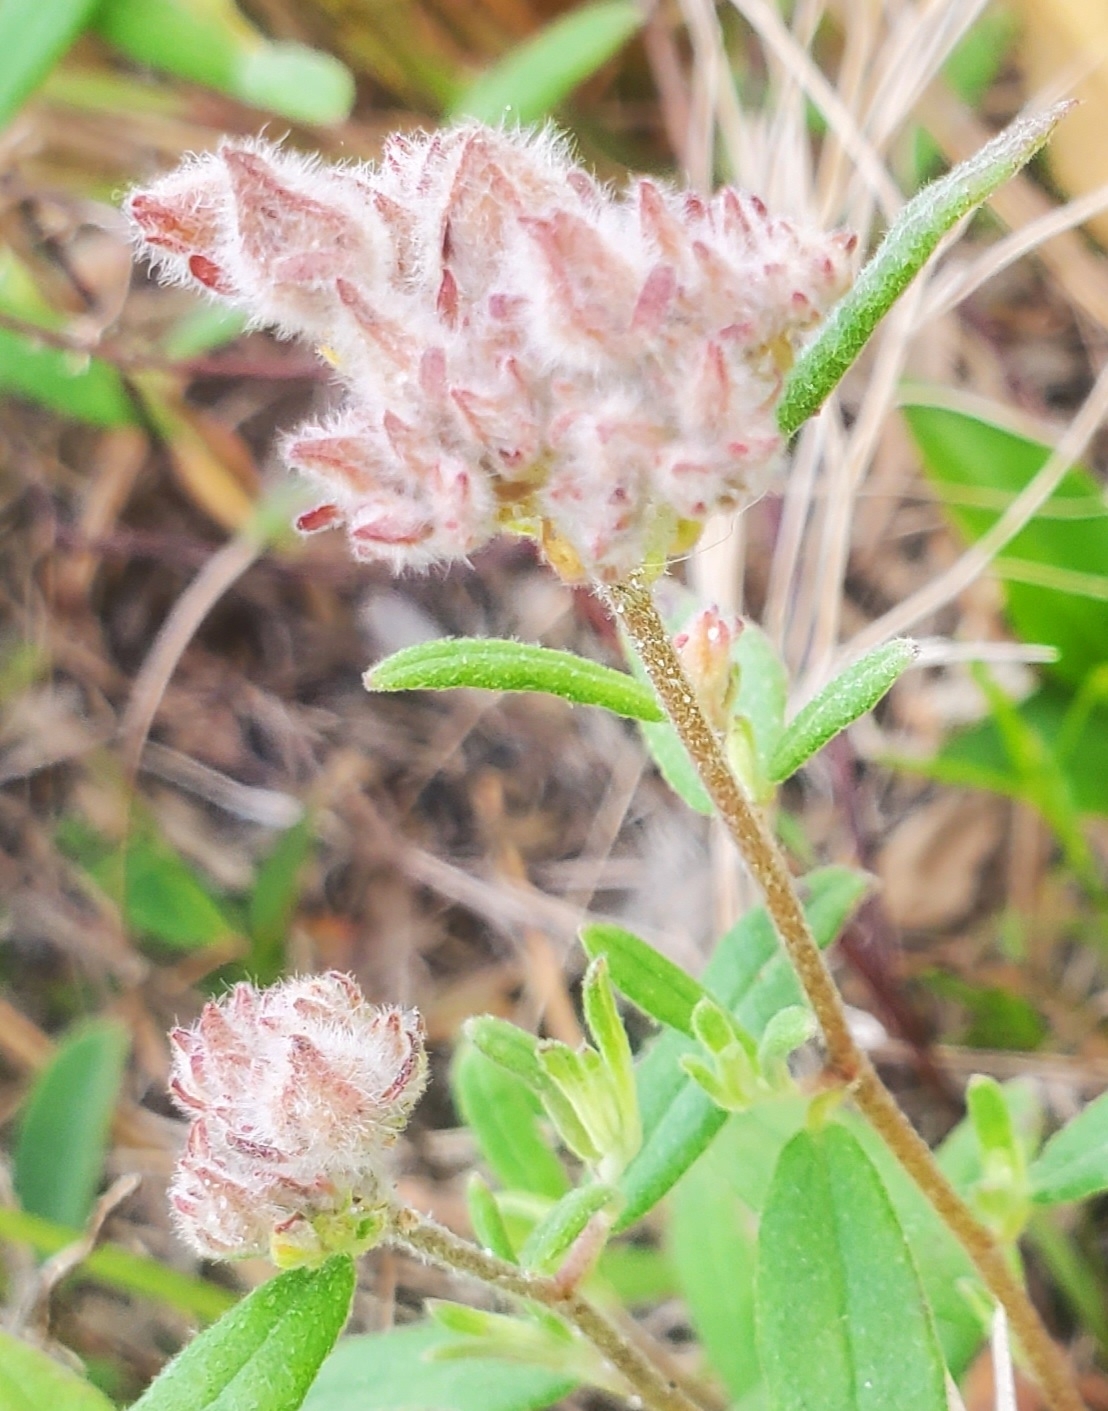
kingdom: Plantae
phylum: Tracheophyta
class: Magnoliopsida
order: Malvales
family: Cistaceae
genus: Crocanthemum
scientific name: Crocanthemum corymbosum
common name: Pinebarren sun-rose
